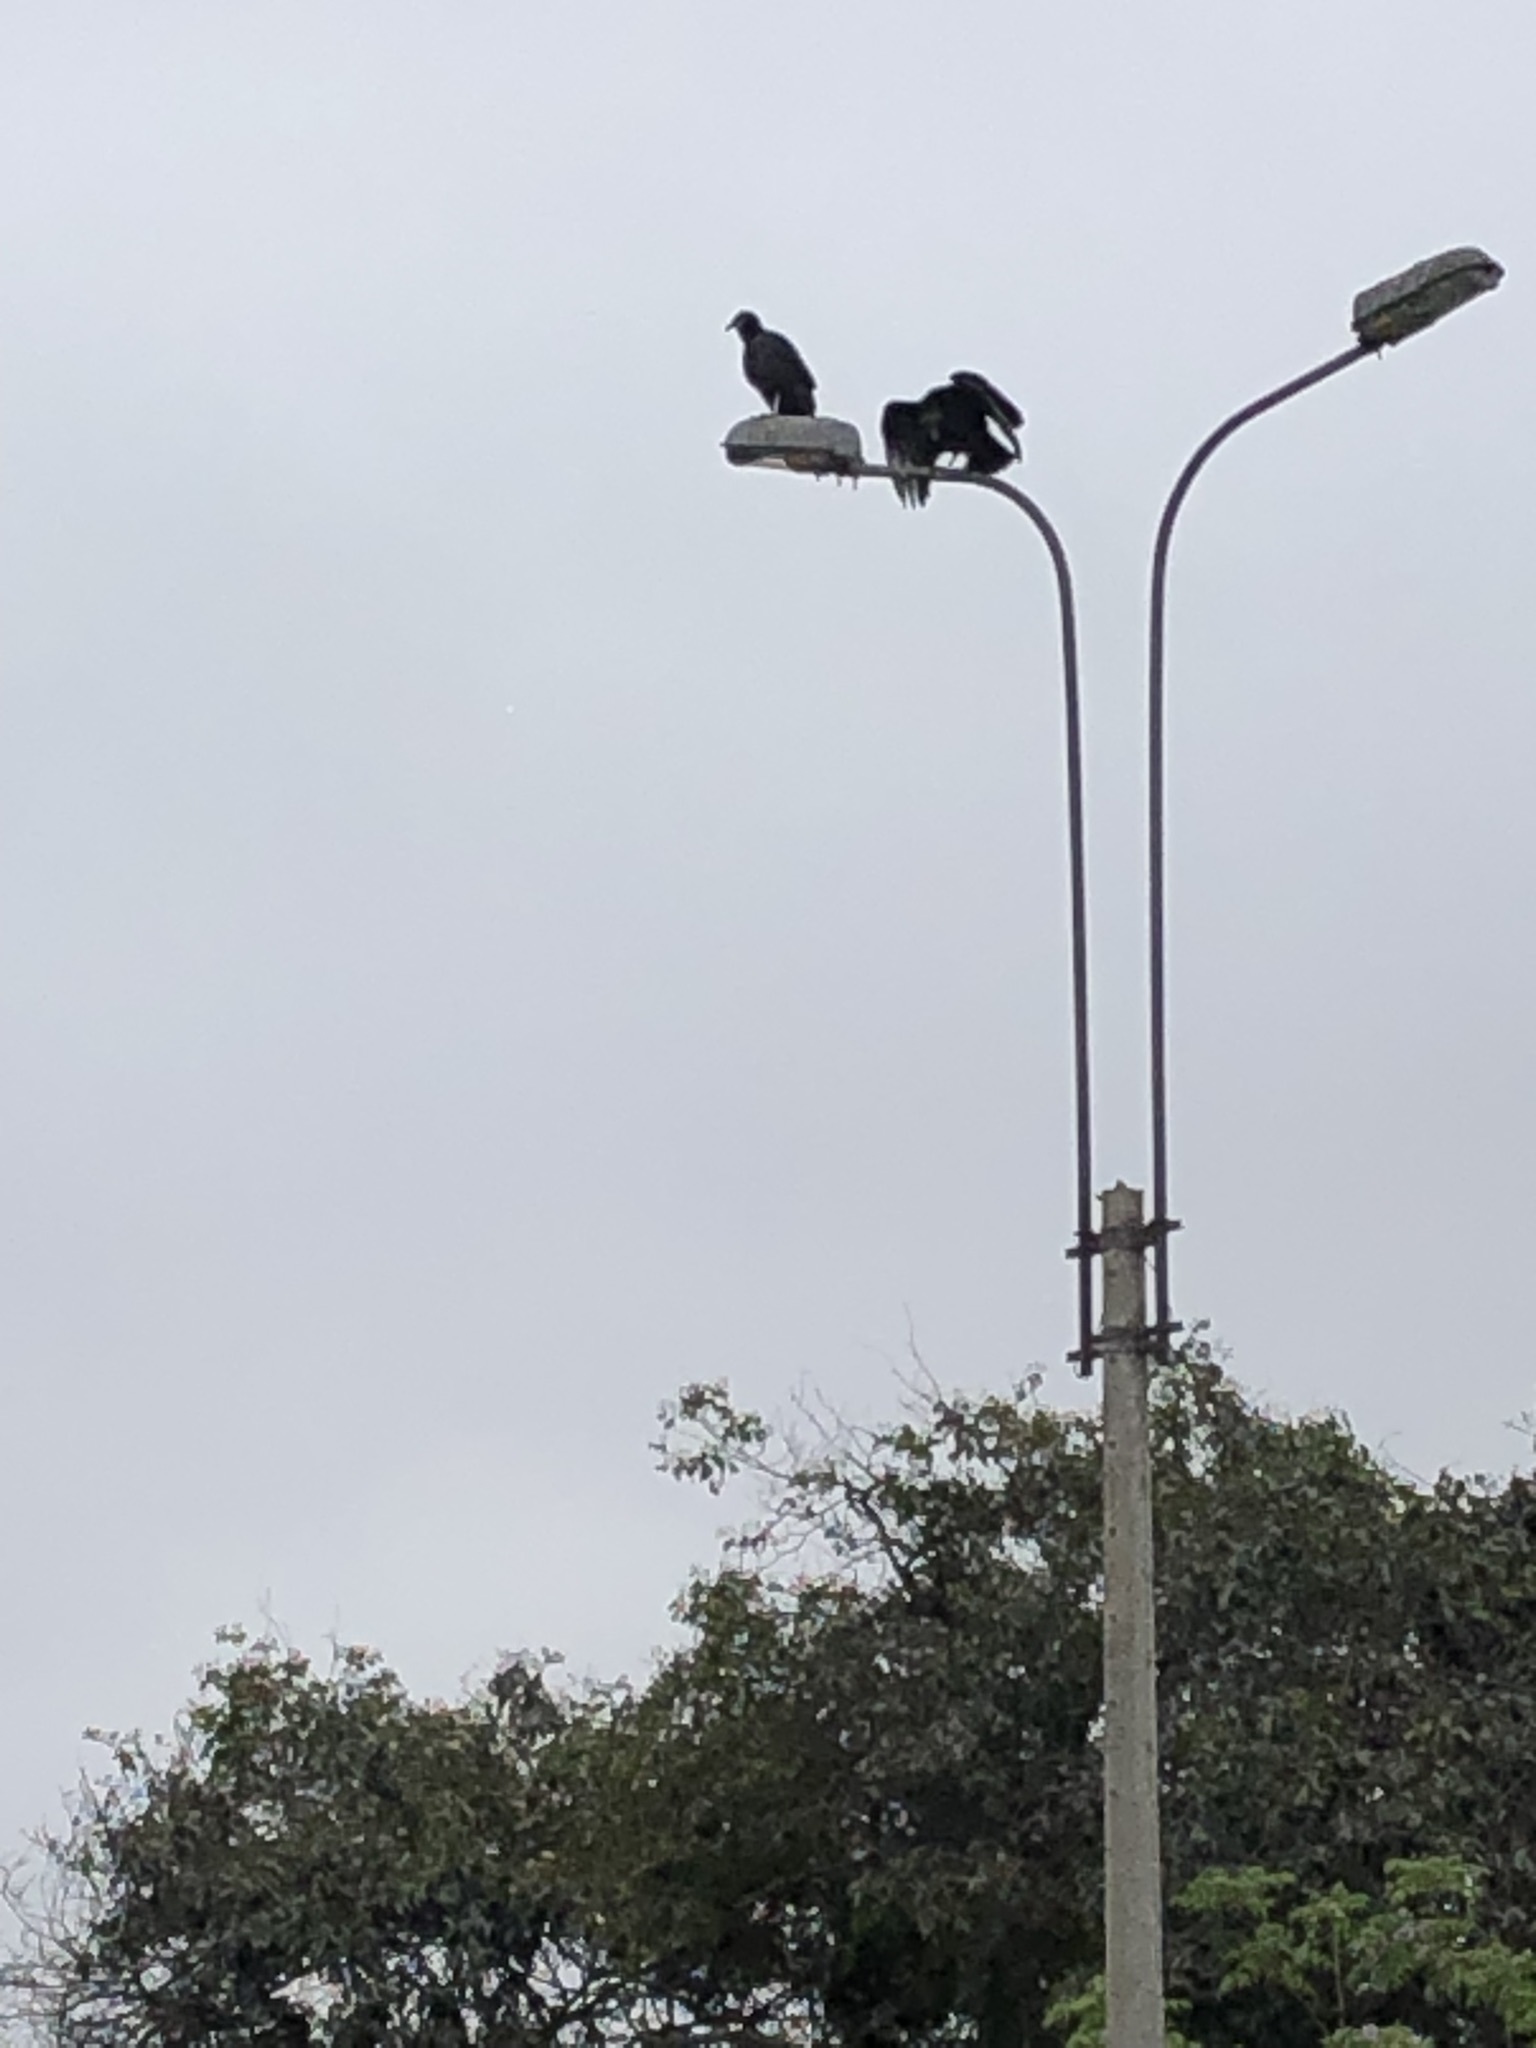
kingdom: Animalia
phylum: Chordata
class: Aves
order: Accipitriformes
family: Cathartidae
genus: Coragyps
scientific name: Coragyps atratus
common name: Black vulture
